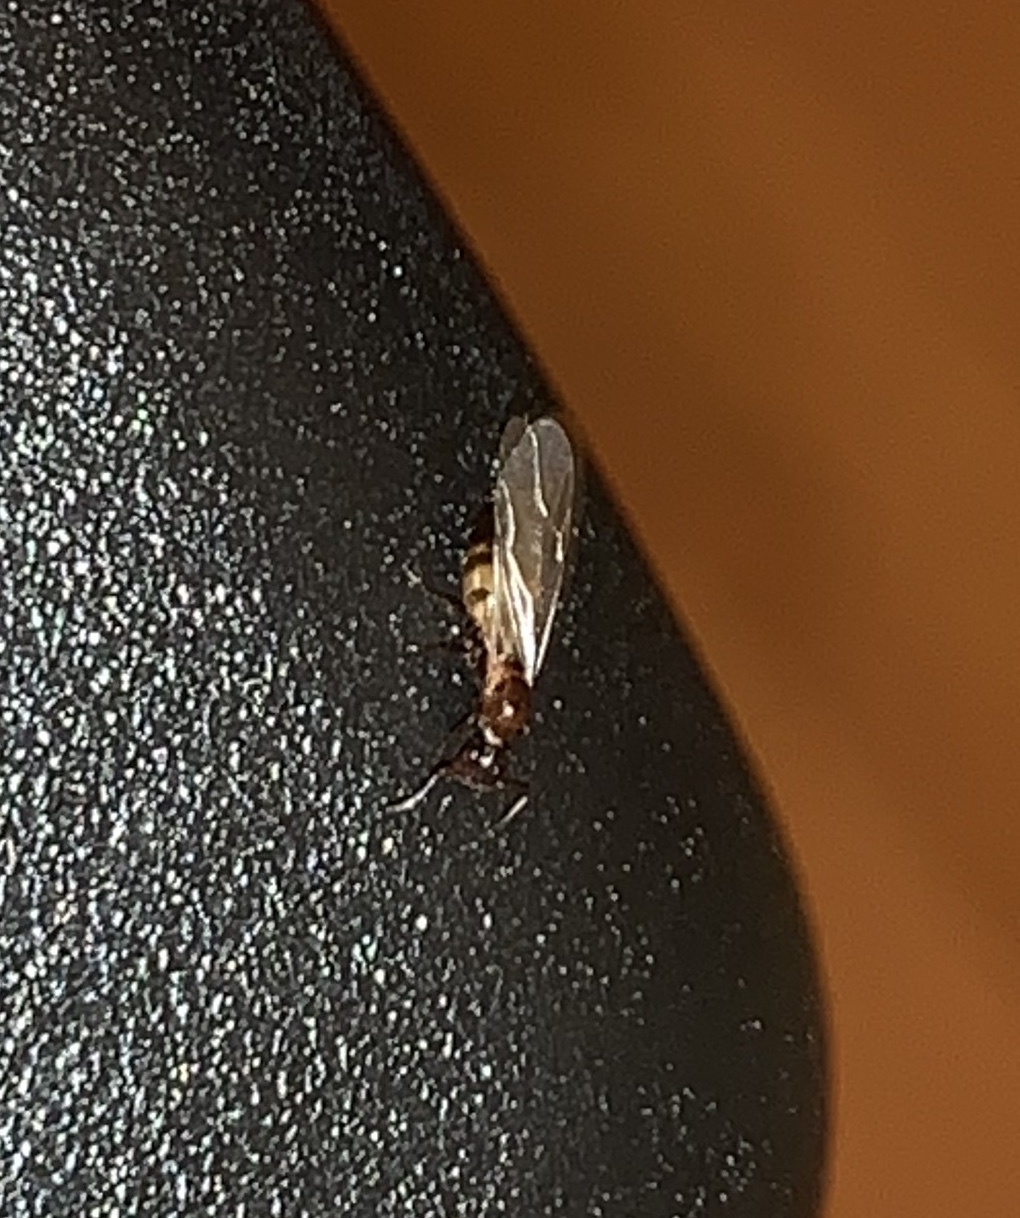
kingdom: Animalia
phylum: Arthropoda
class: Insecta
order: Hymenoptera
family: Formicidae
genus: Colobopsis
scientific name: Colobopsis impressa
